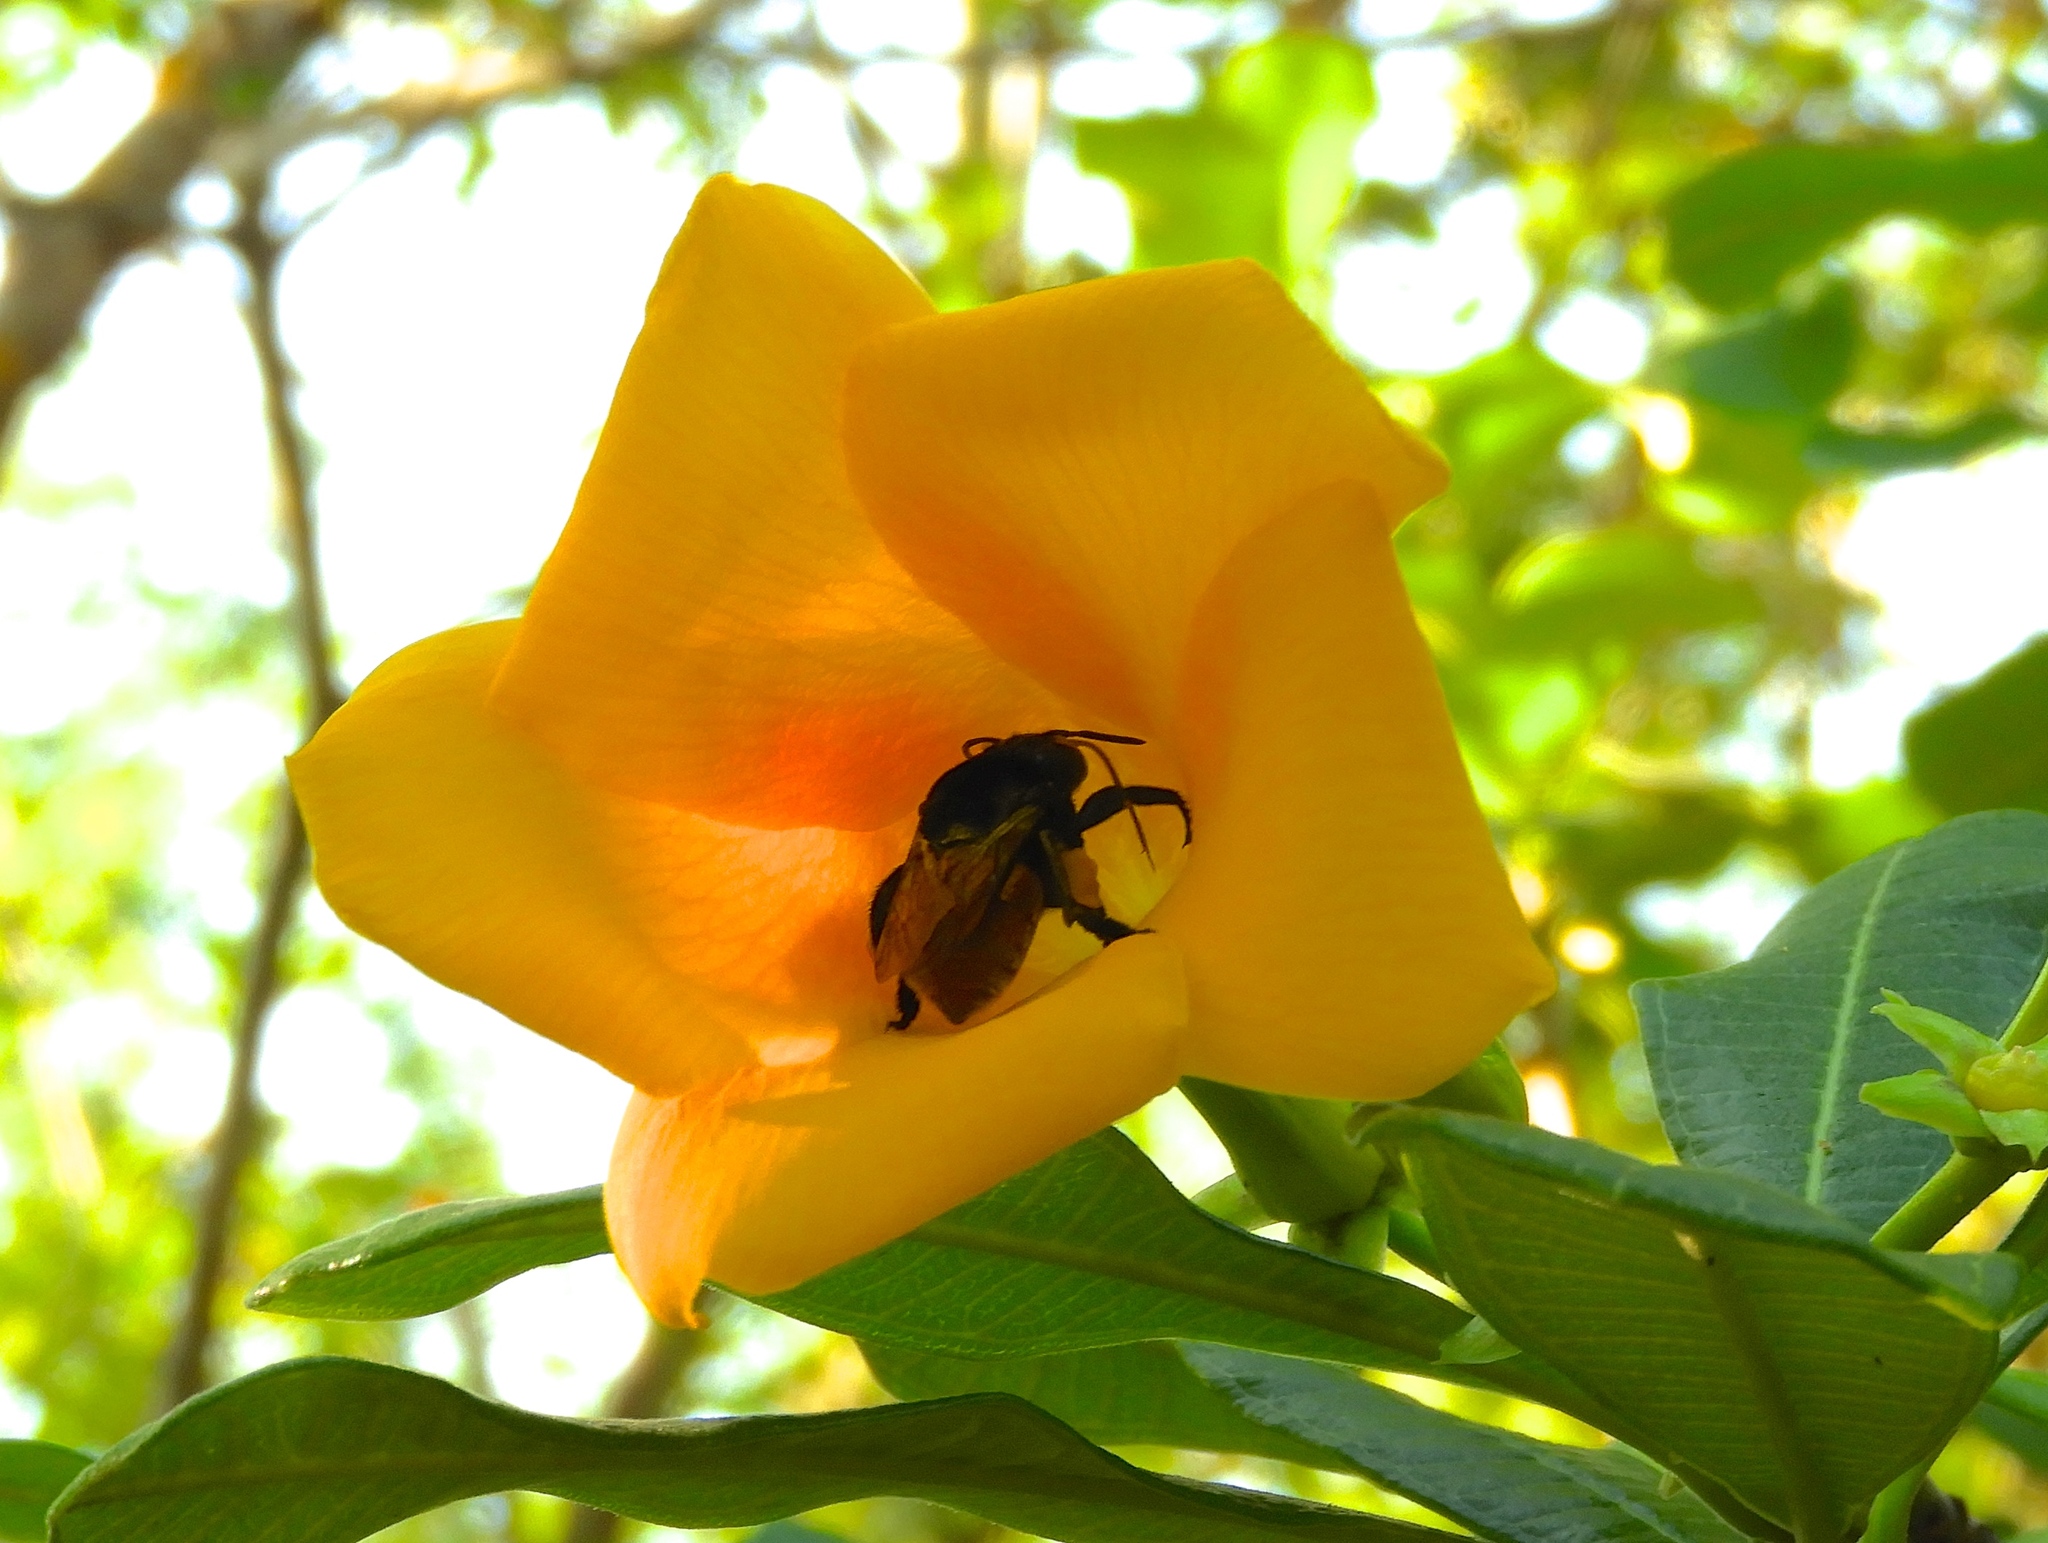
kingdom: Animalia
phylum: Arthropoda
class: Insecta
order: Hymenoptera
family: Apidae
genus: Eulaema
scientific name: Eulaema polychroma
